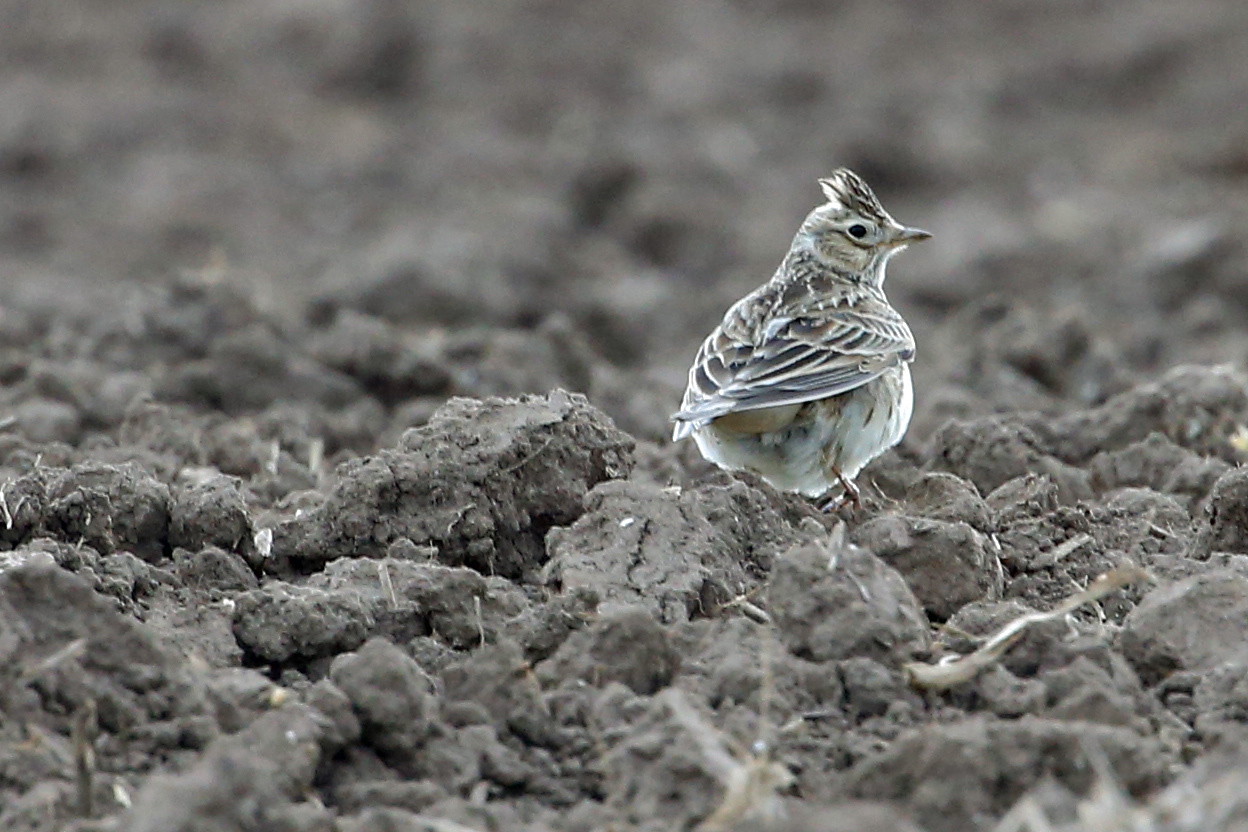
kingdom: Animalia
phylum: Chordata
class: Aves
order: Passeriformes
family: Alaudidae
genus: Alauda
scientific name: Alauda arvensis
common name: Eurasian skylark
